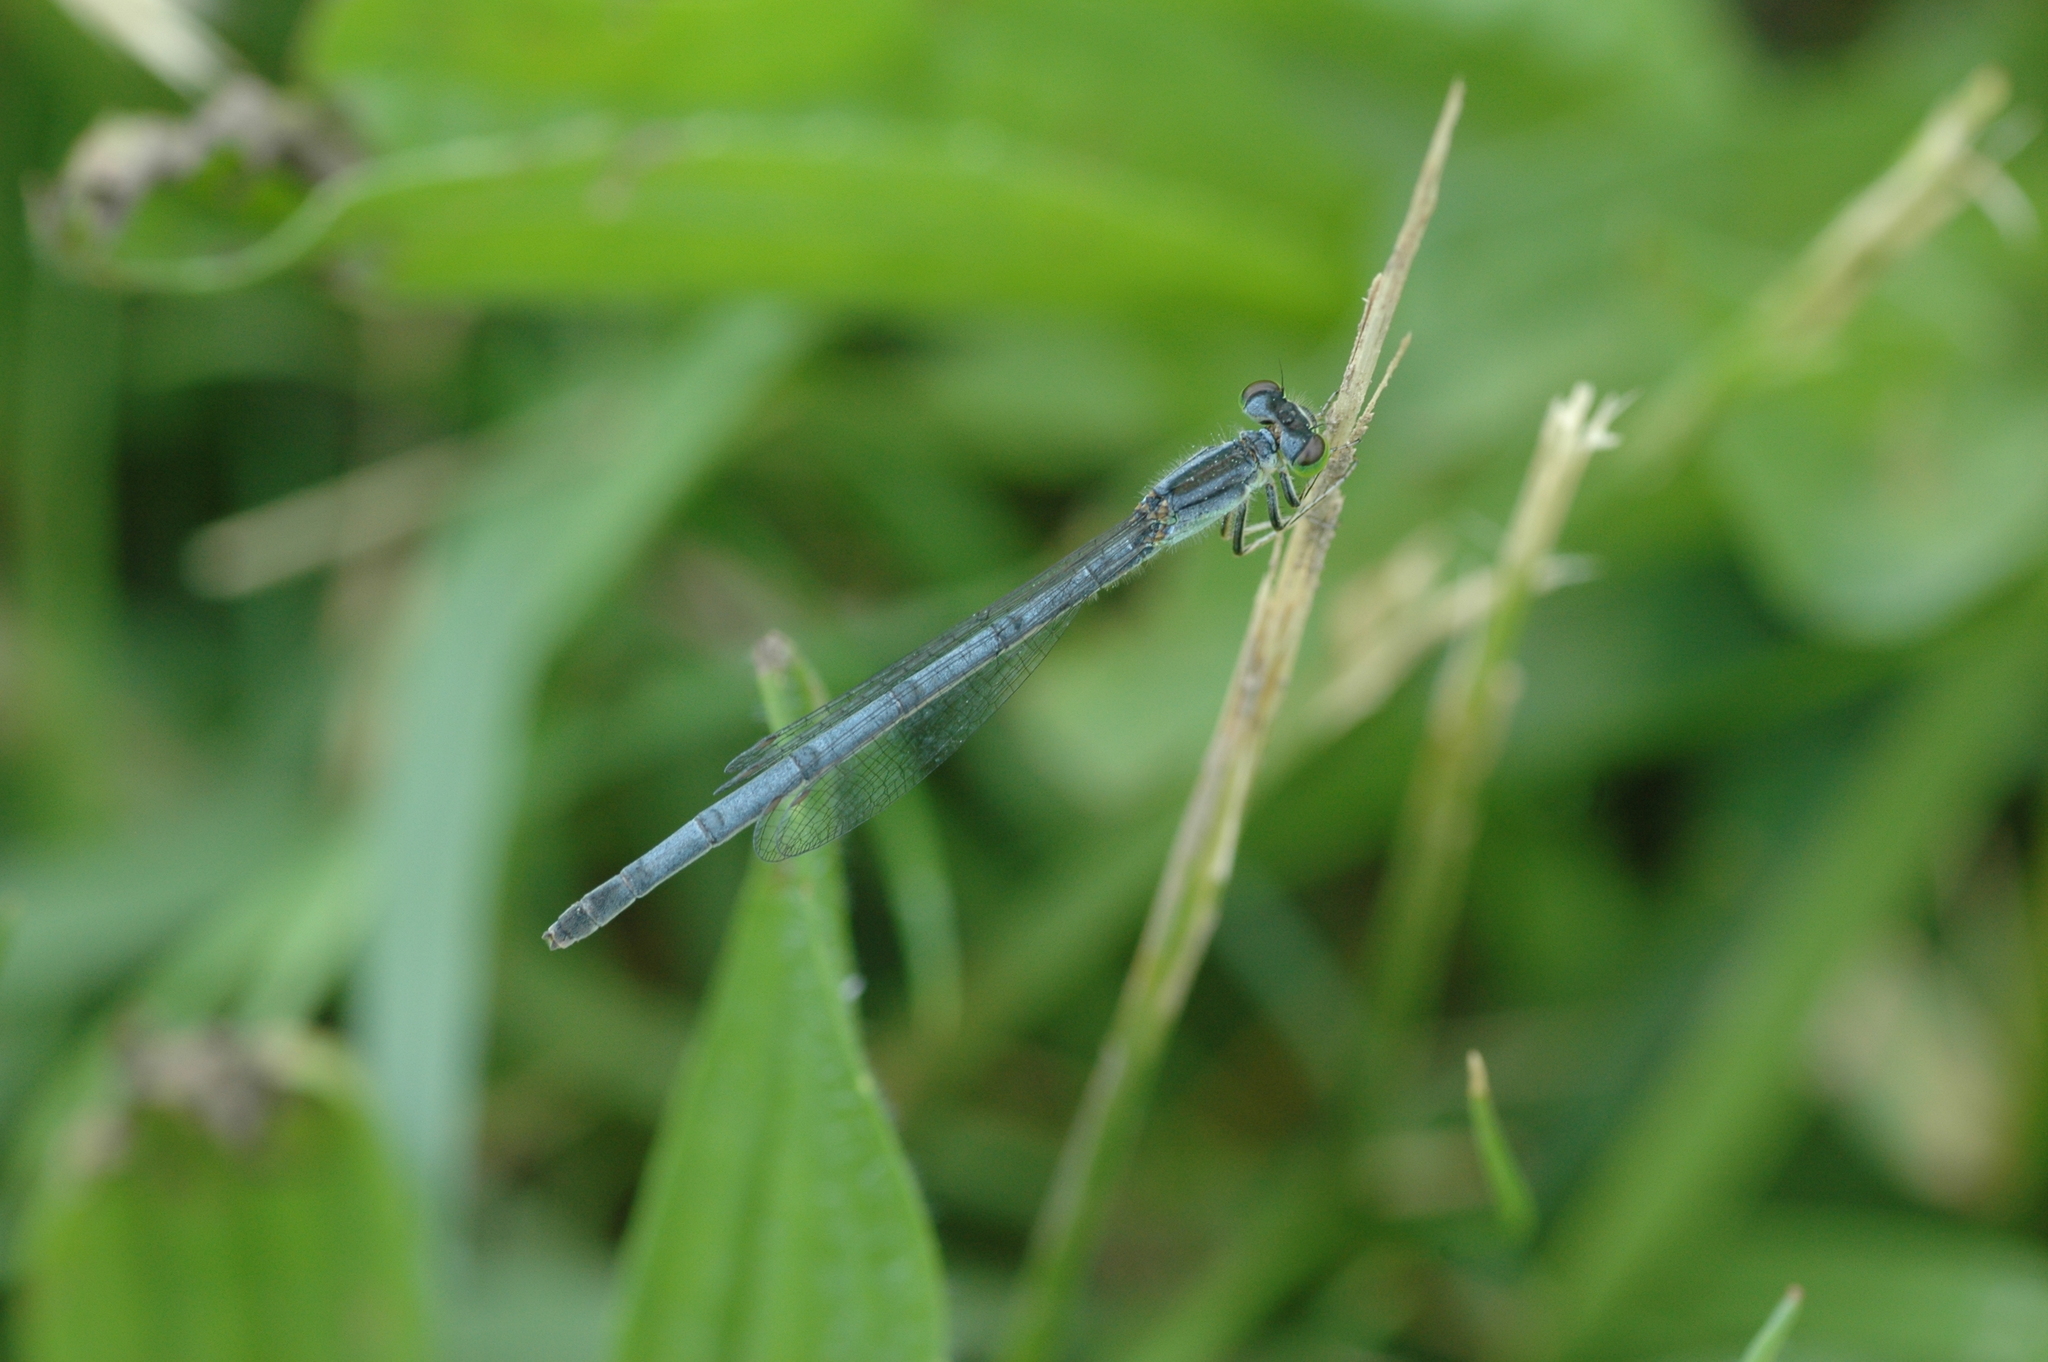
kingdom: Animalia
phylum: Arthropoda
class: Insecta
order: Odonata
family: Coenagrionidae
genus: Ischnura
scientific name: Ischnura verticalis
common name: Eastern forktail
